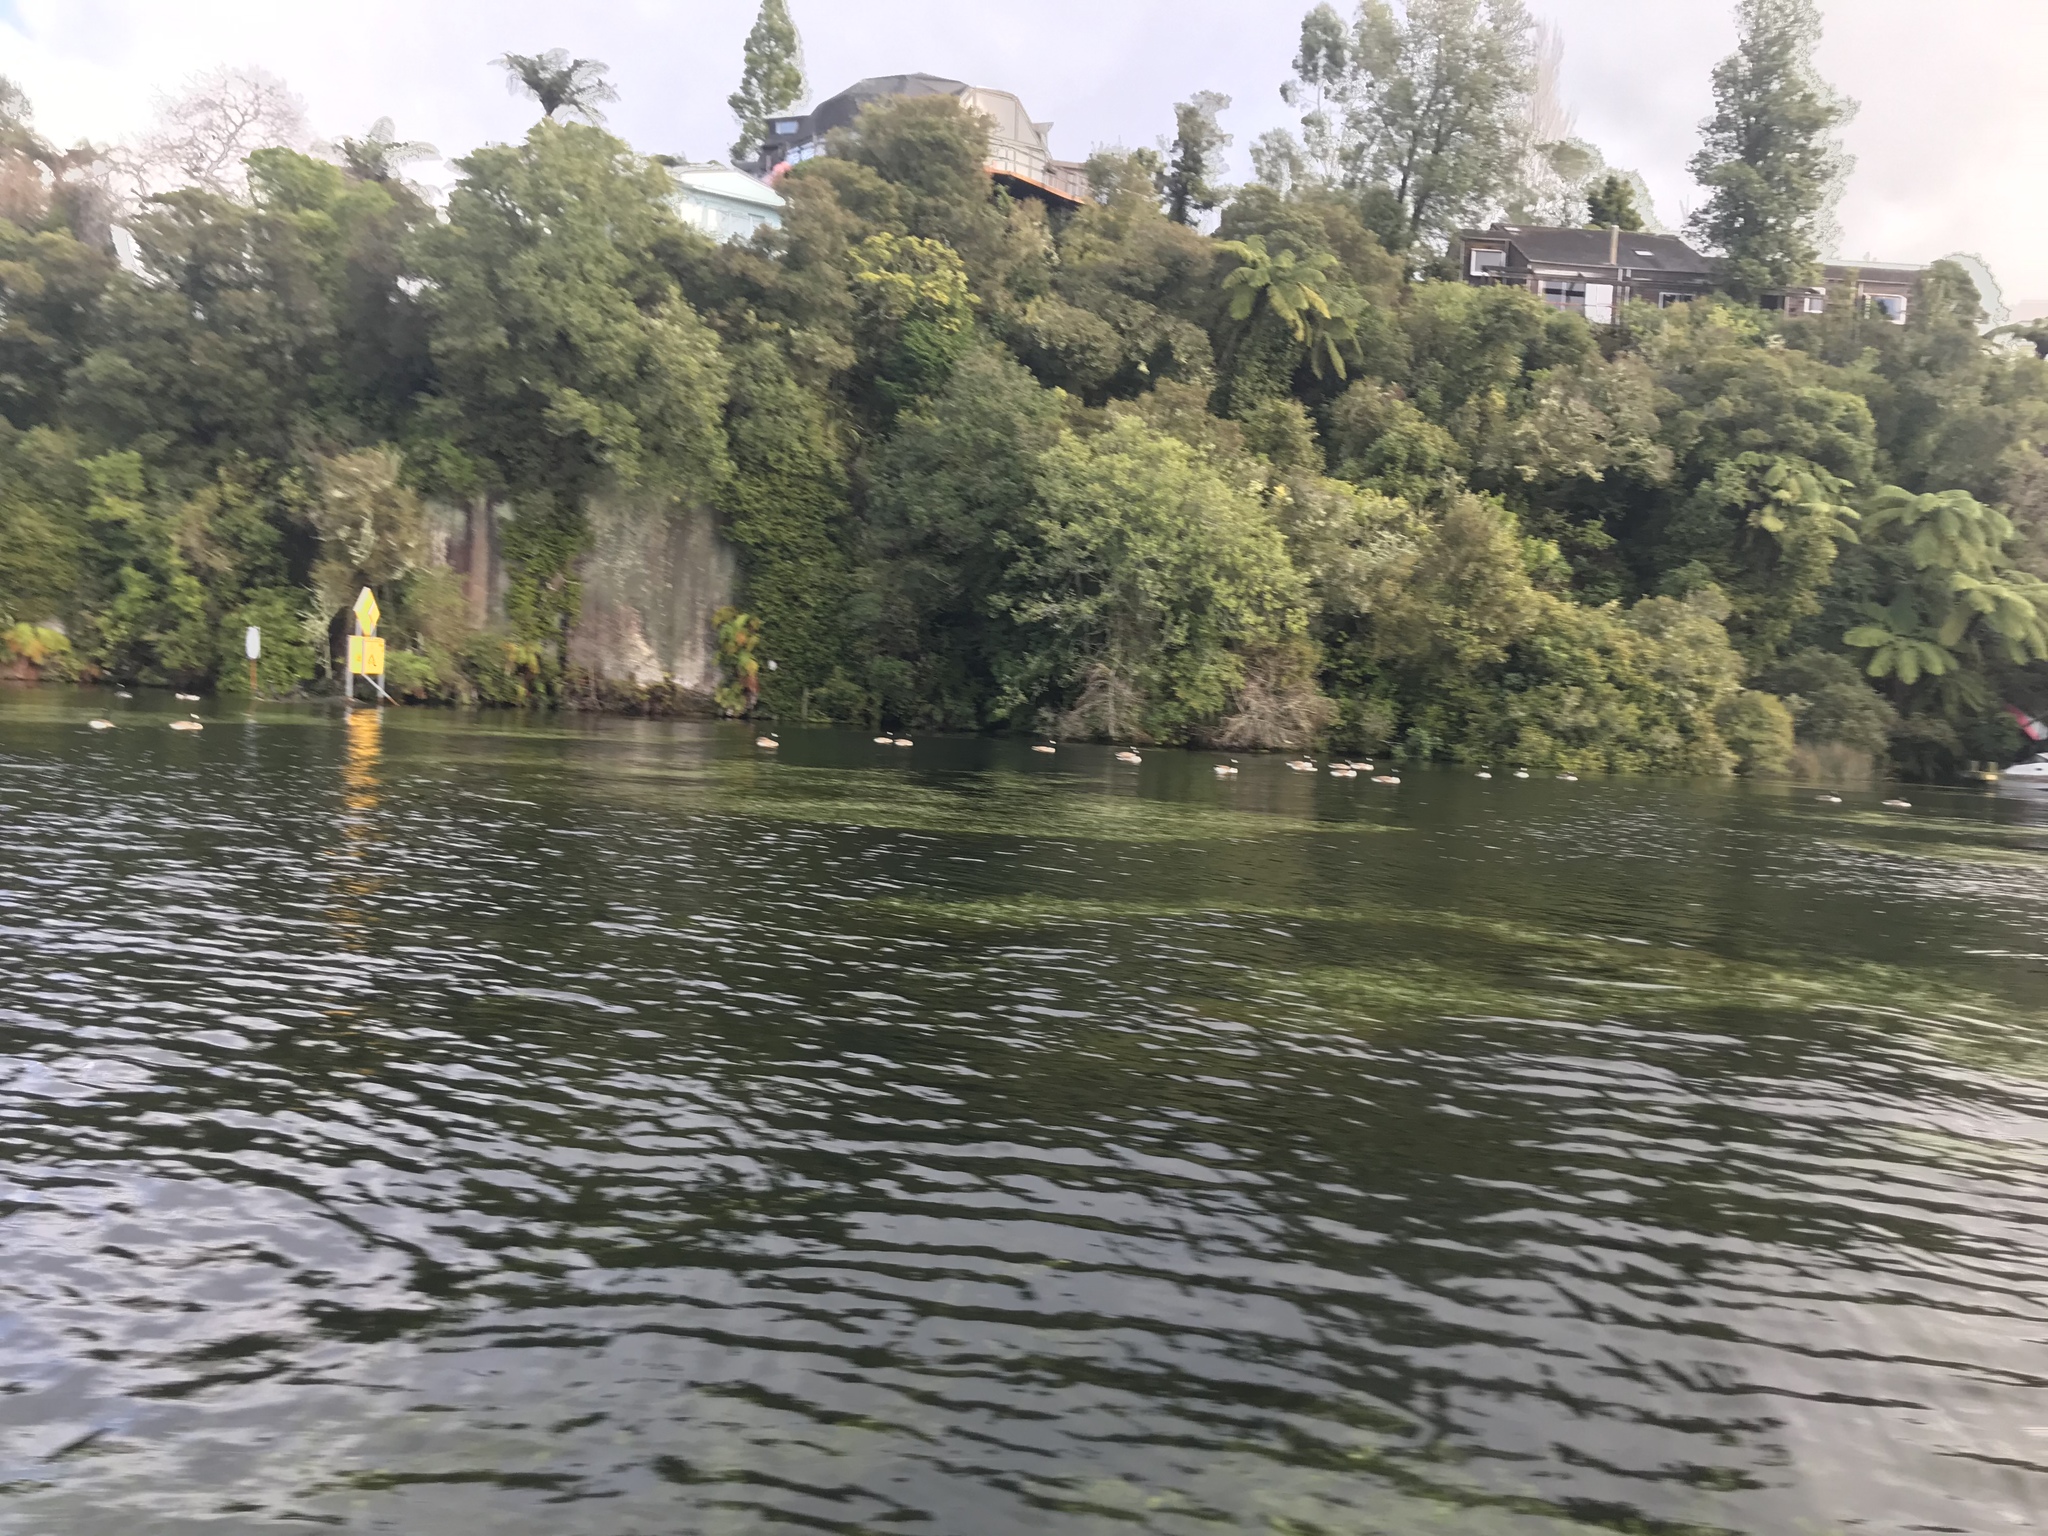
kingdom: Animalia
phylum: Chordata
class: Aves
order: Anseriformes
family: Anatidae
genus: Branta
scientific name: Branta canadensis
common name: Canada goose
